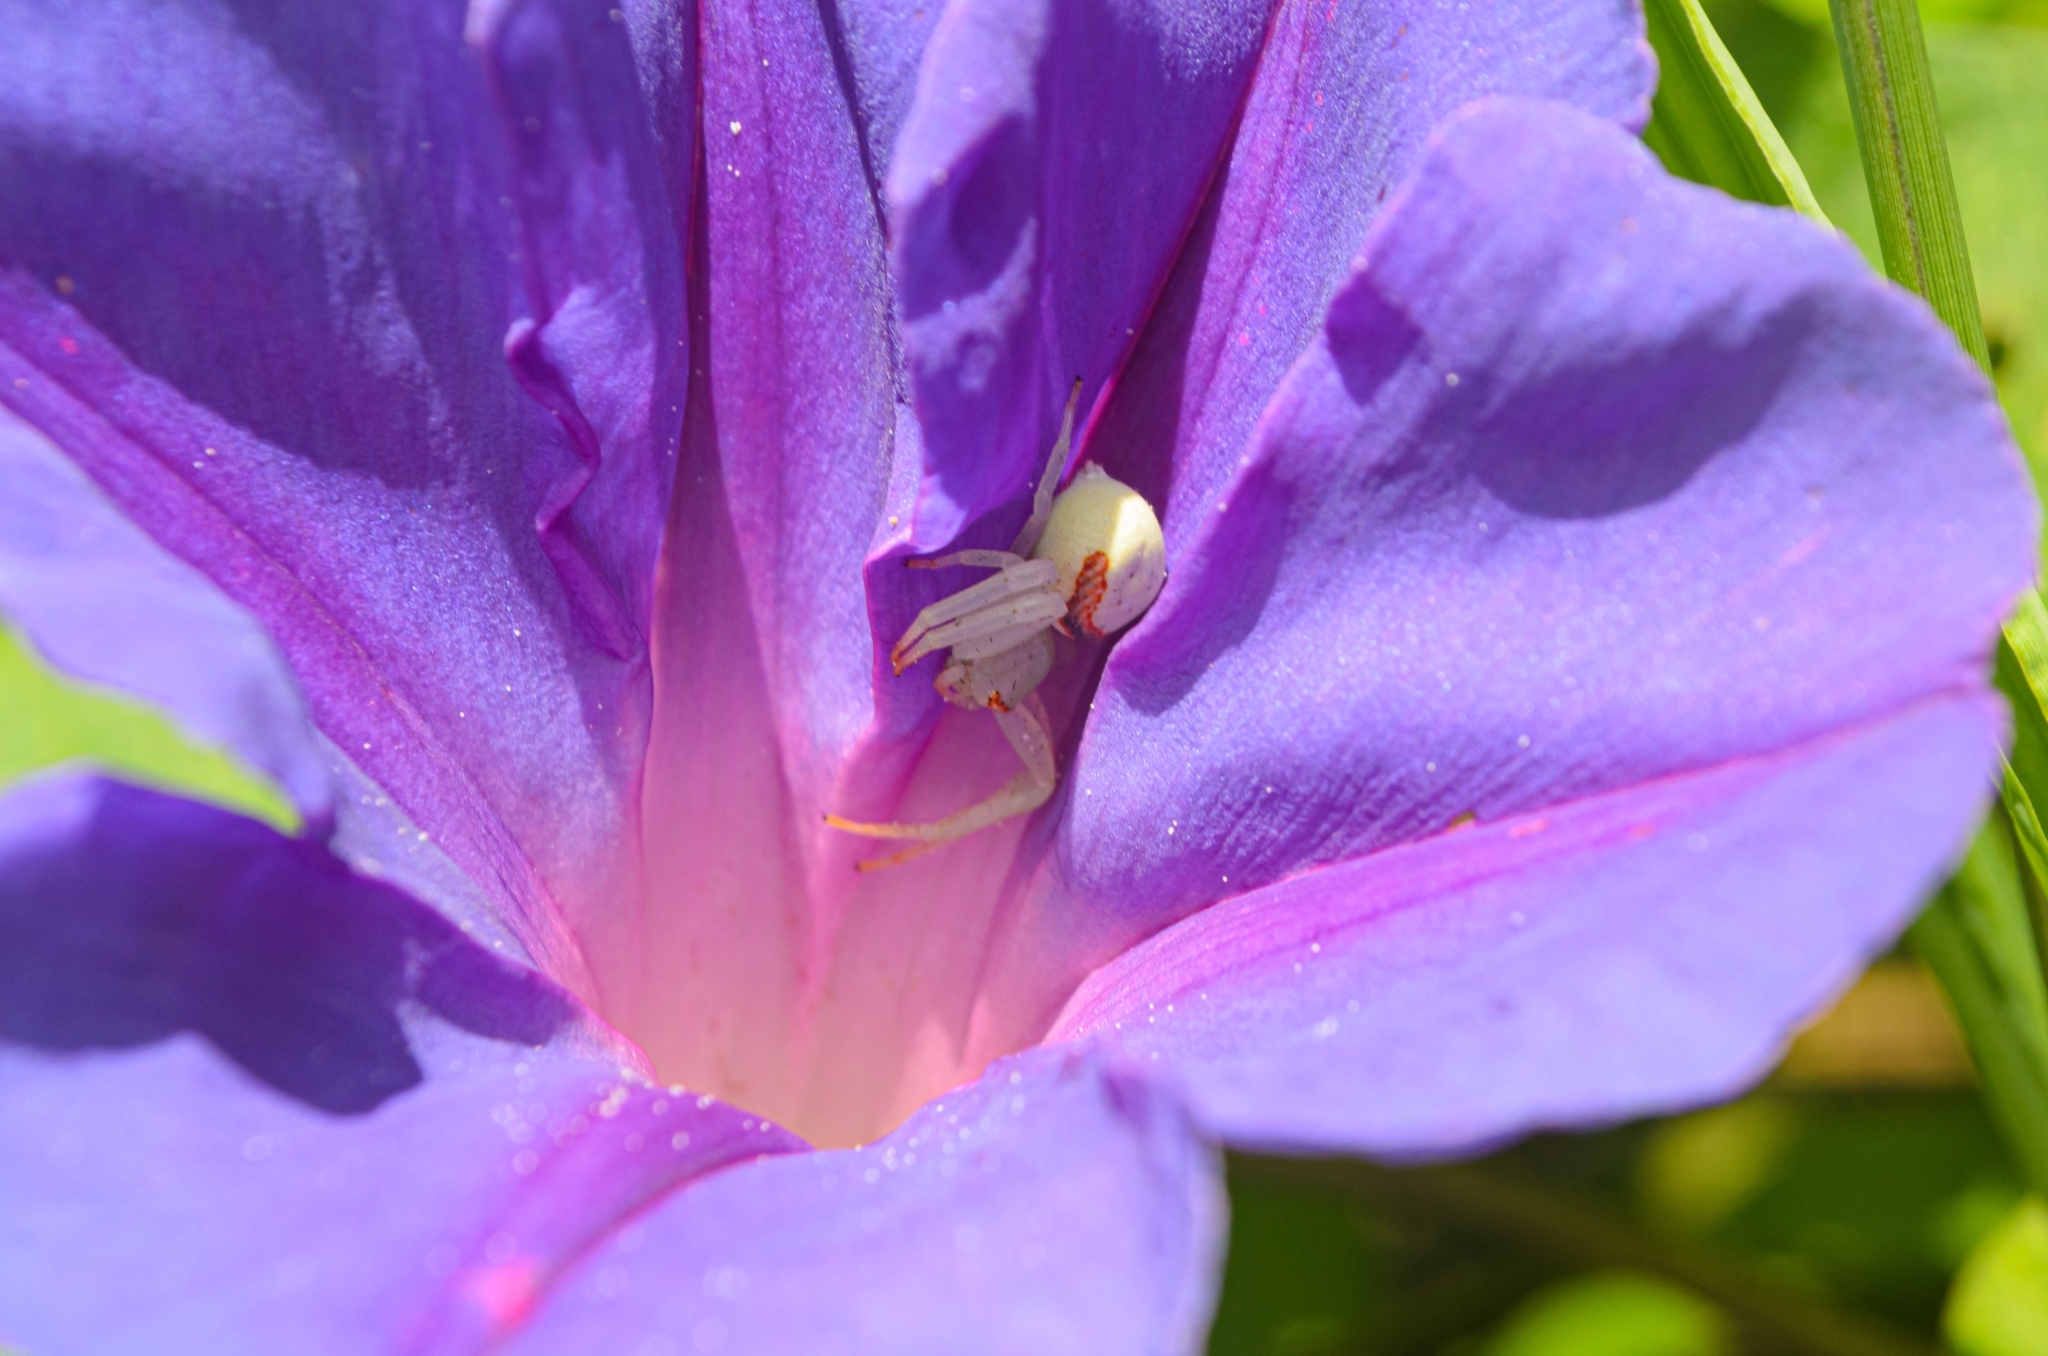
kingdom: Animalia
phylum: Arthropoda
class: Arachnida
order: Araneae
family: Thomisidae
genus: Misumenops
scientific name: Misumenops callinurus
